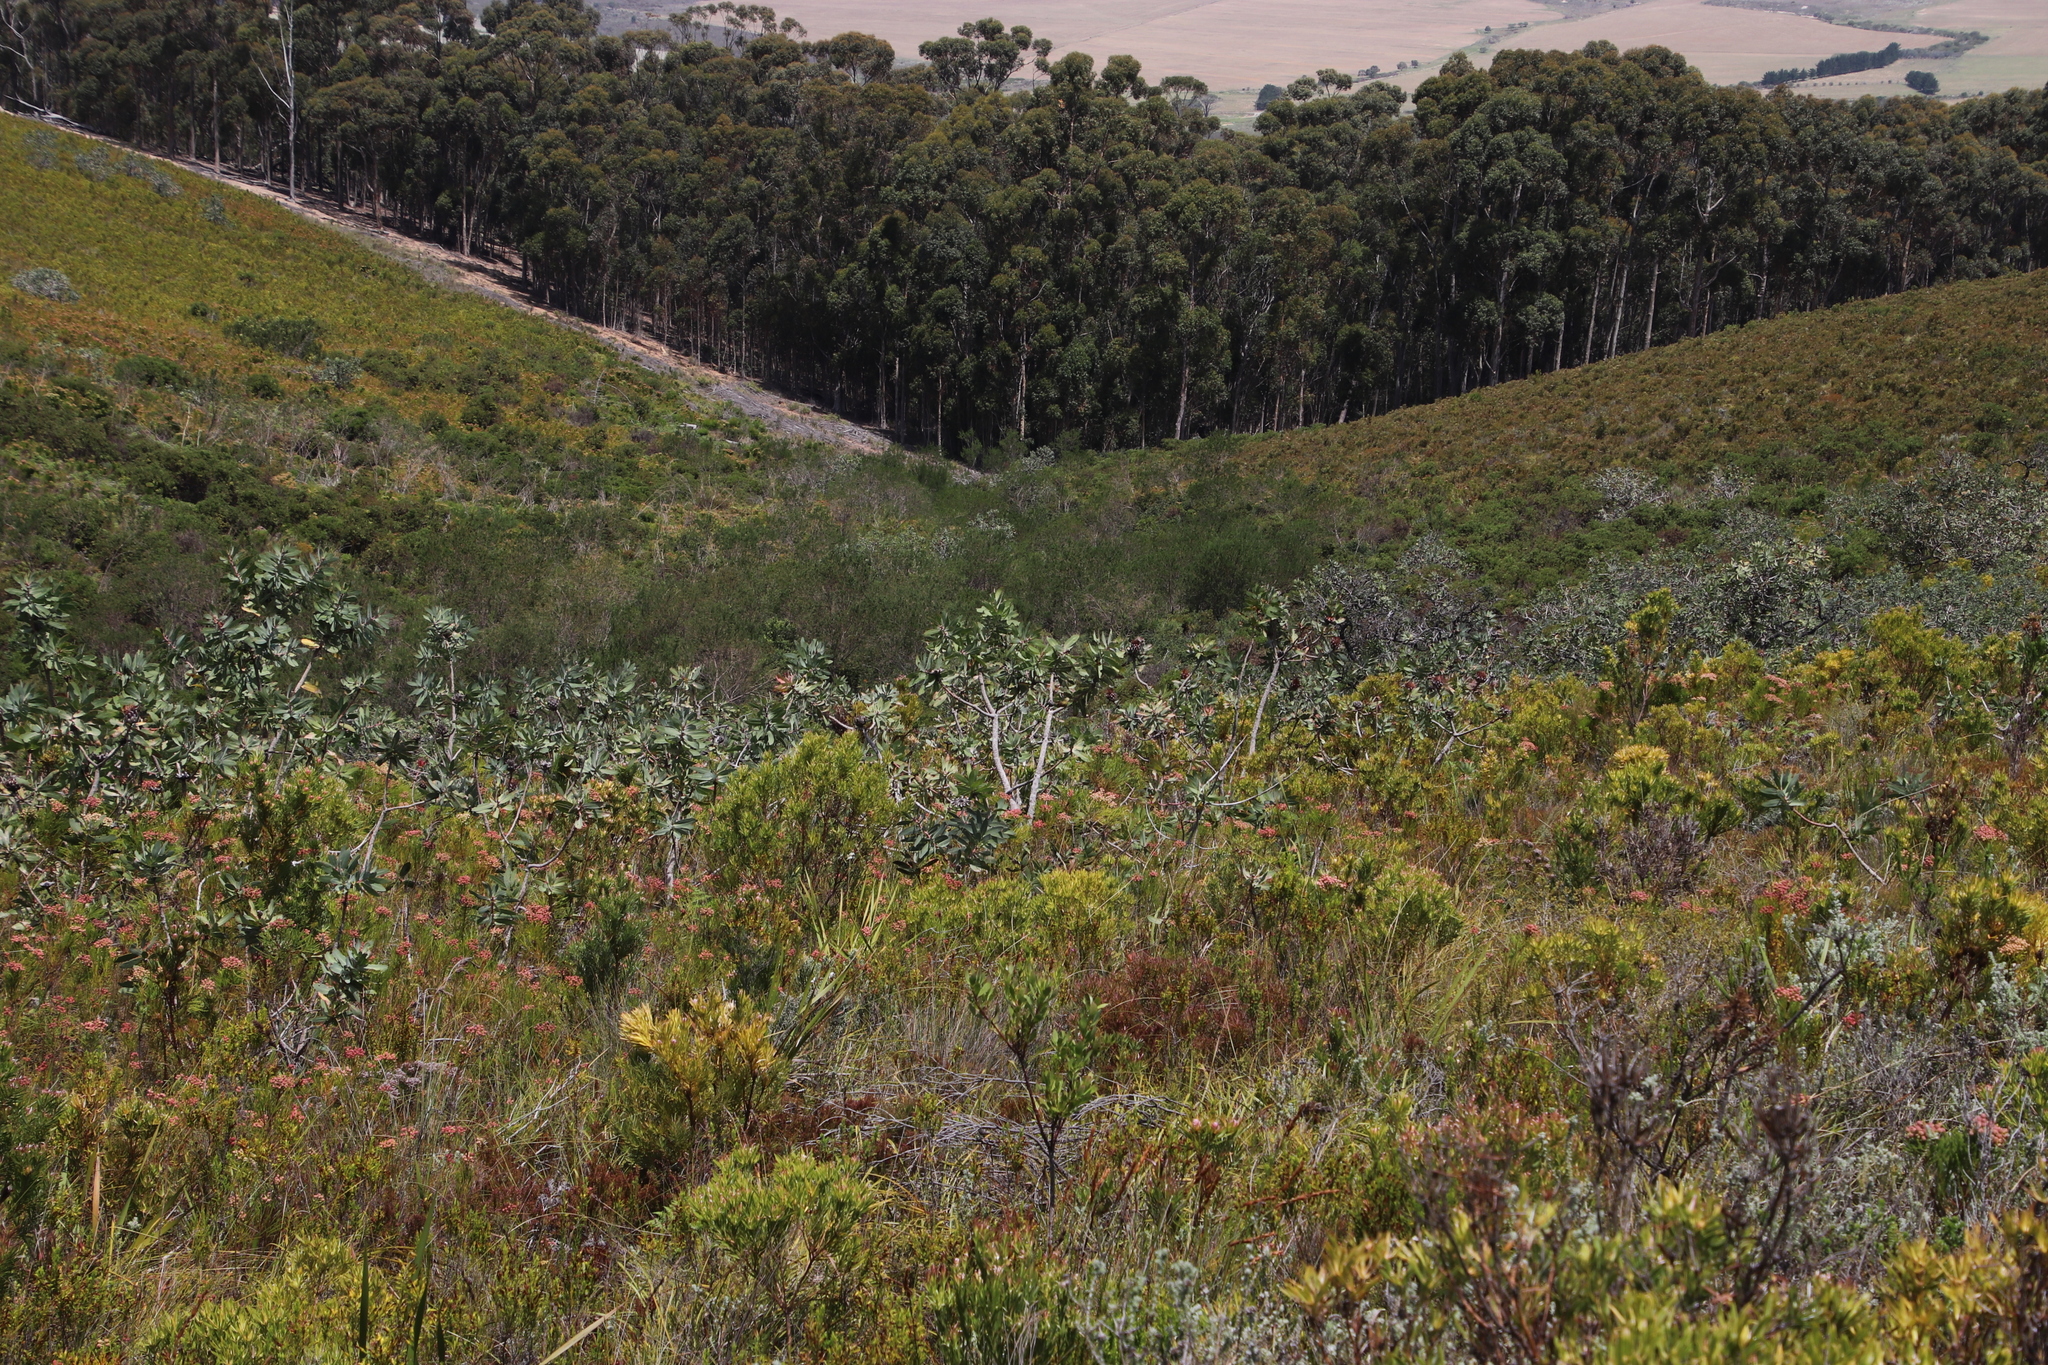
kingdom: Plantae
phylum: Tracheophyta
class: Magnoliopsida
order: Proteales
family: Proteaceae
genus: Protea
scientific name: Protea nitida
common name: Tree protea
